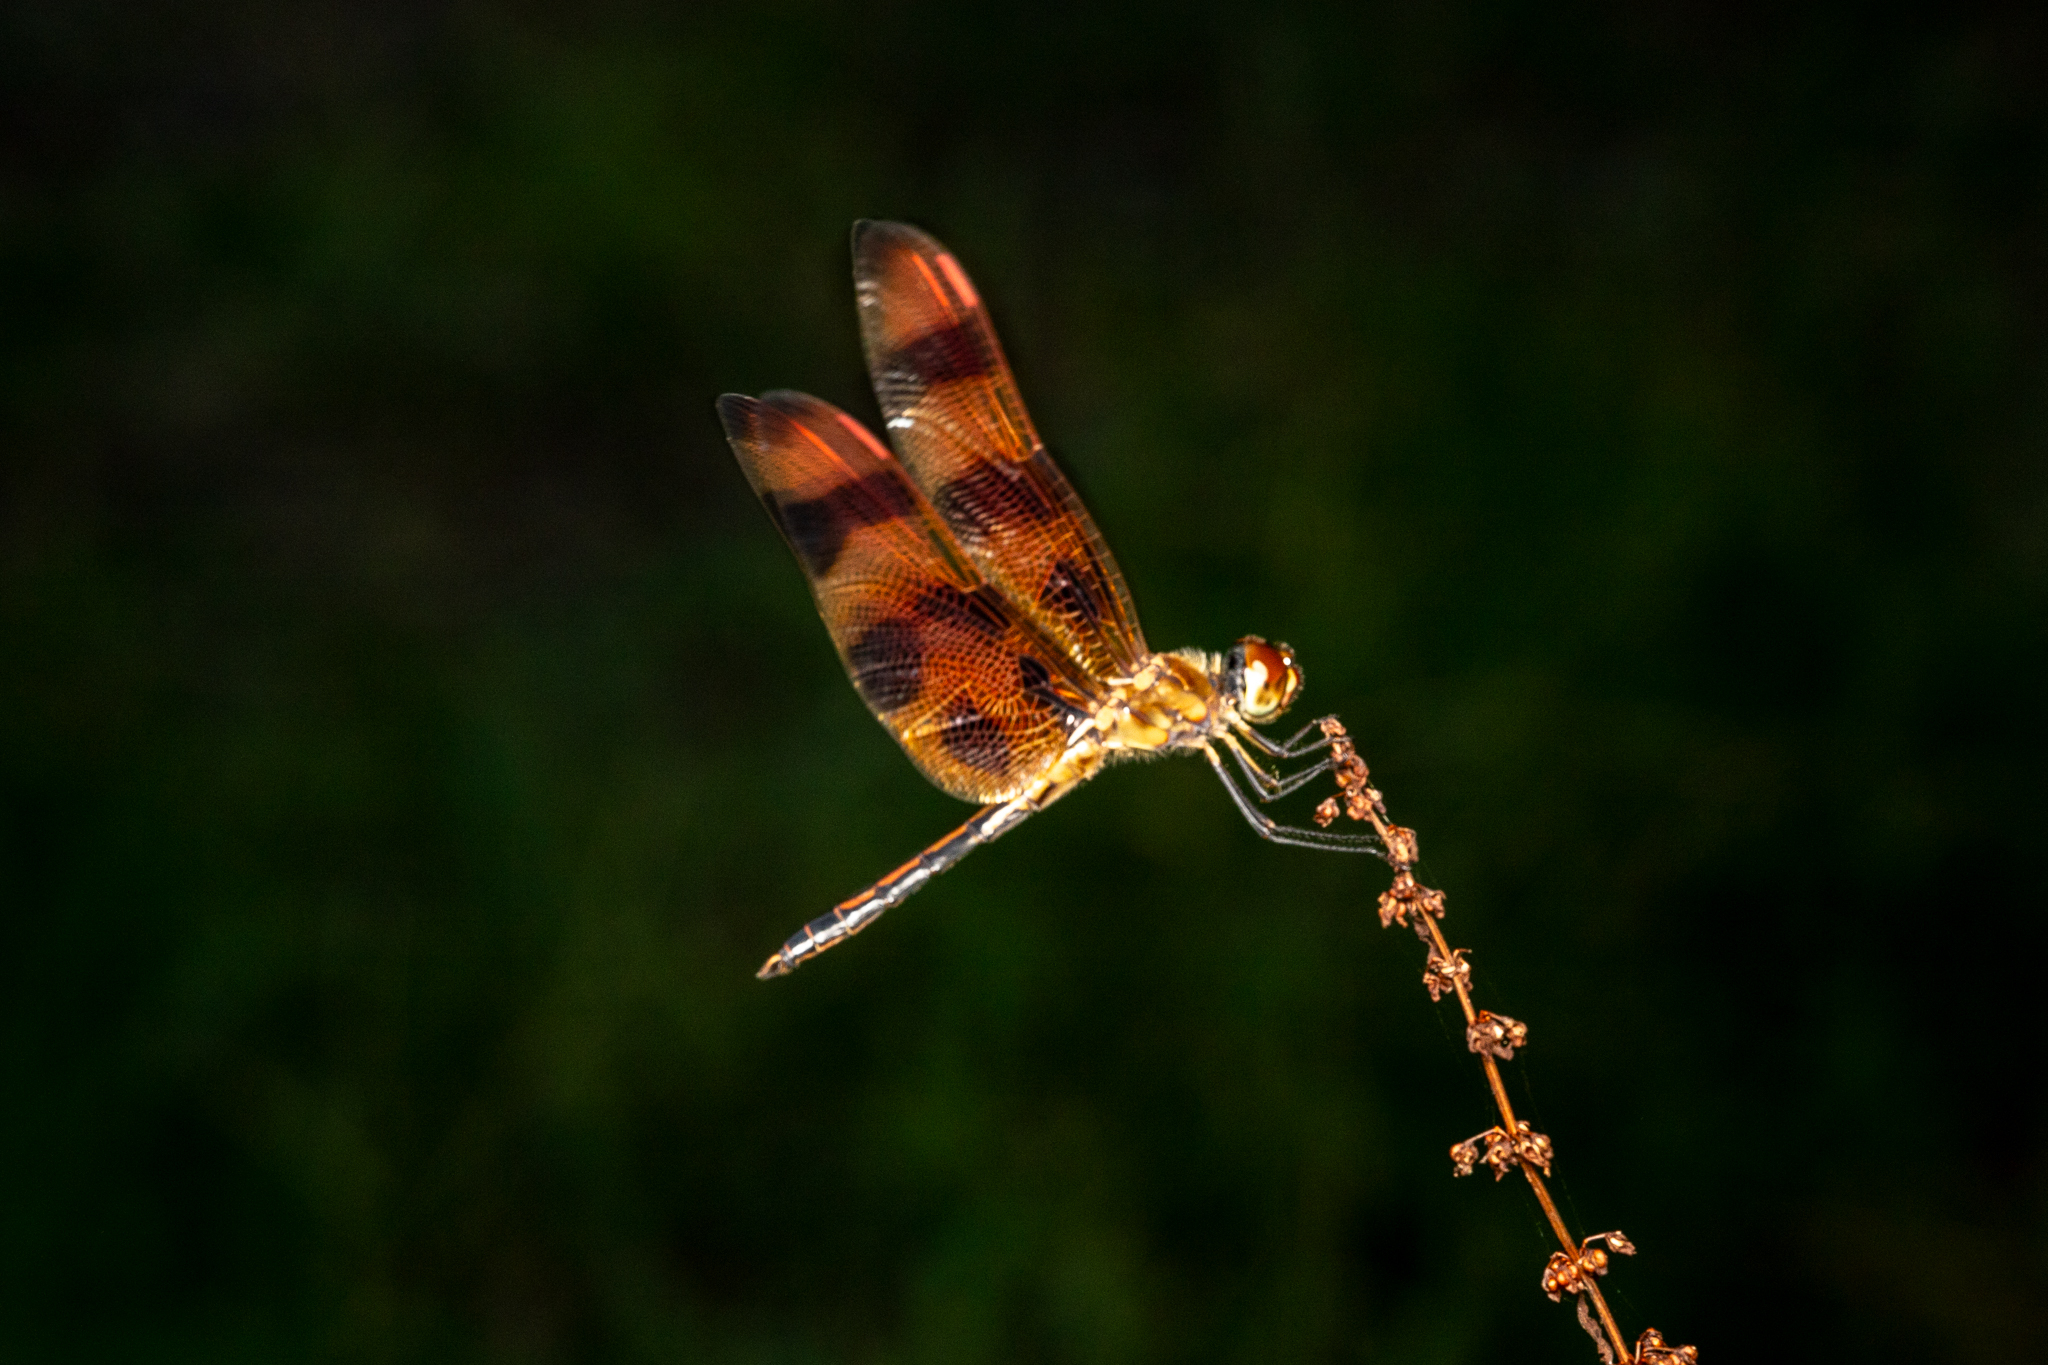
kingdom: Animalia
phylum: Arthropoda
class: Insecta
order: Odonata
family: Libellulidae
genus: Celithemis
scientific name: Celithemis eponina
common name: Halloween pennant
